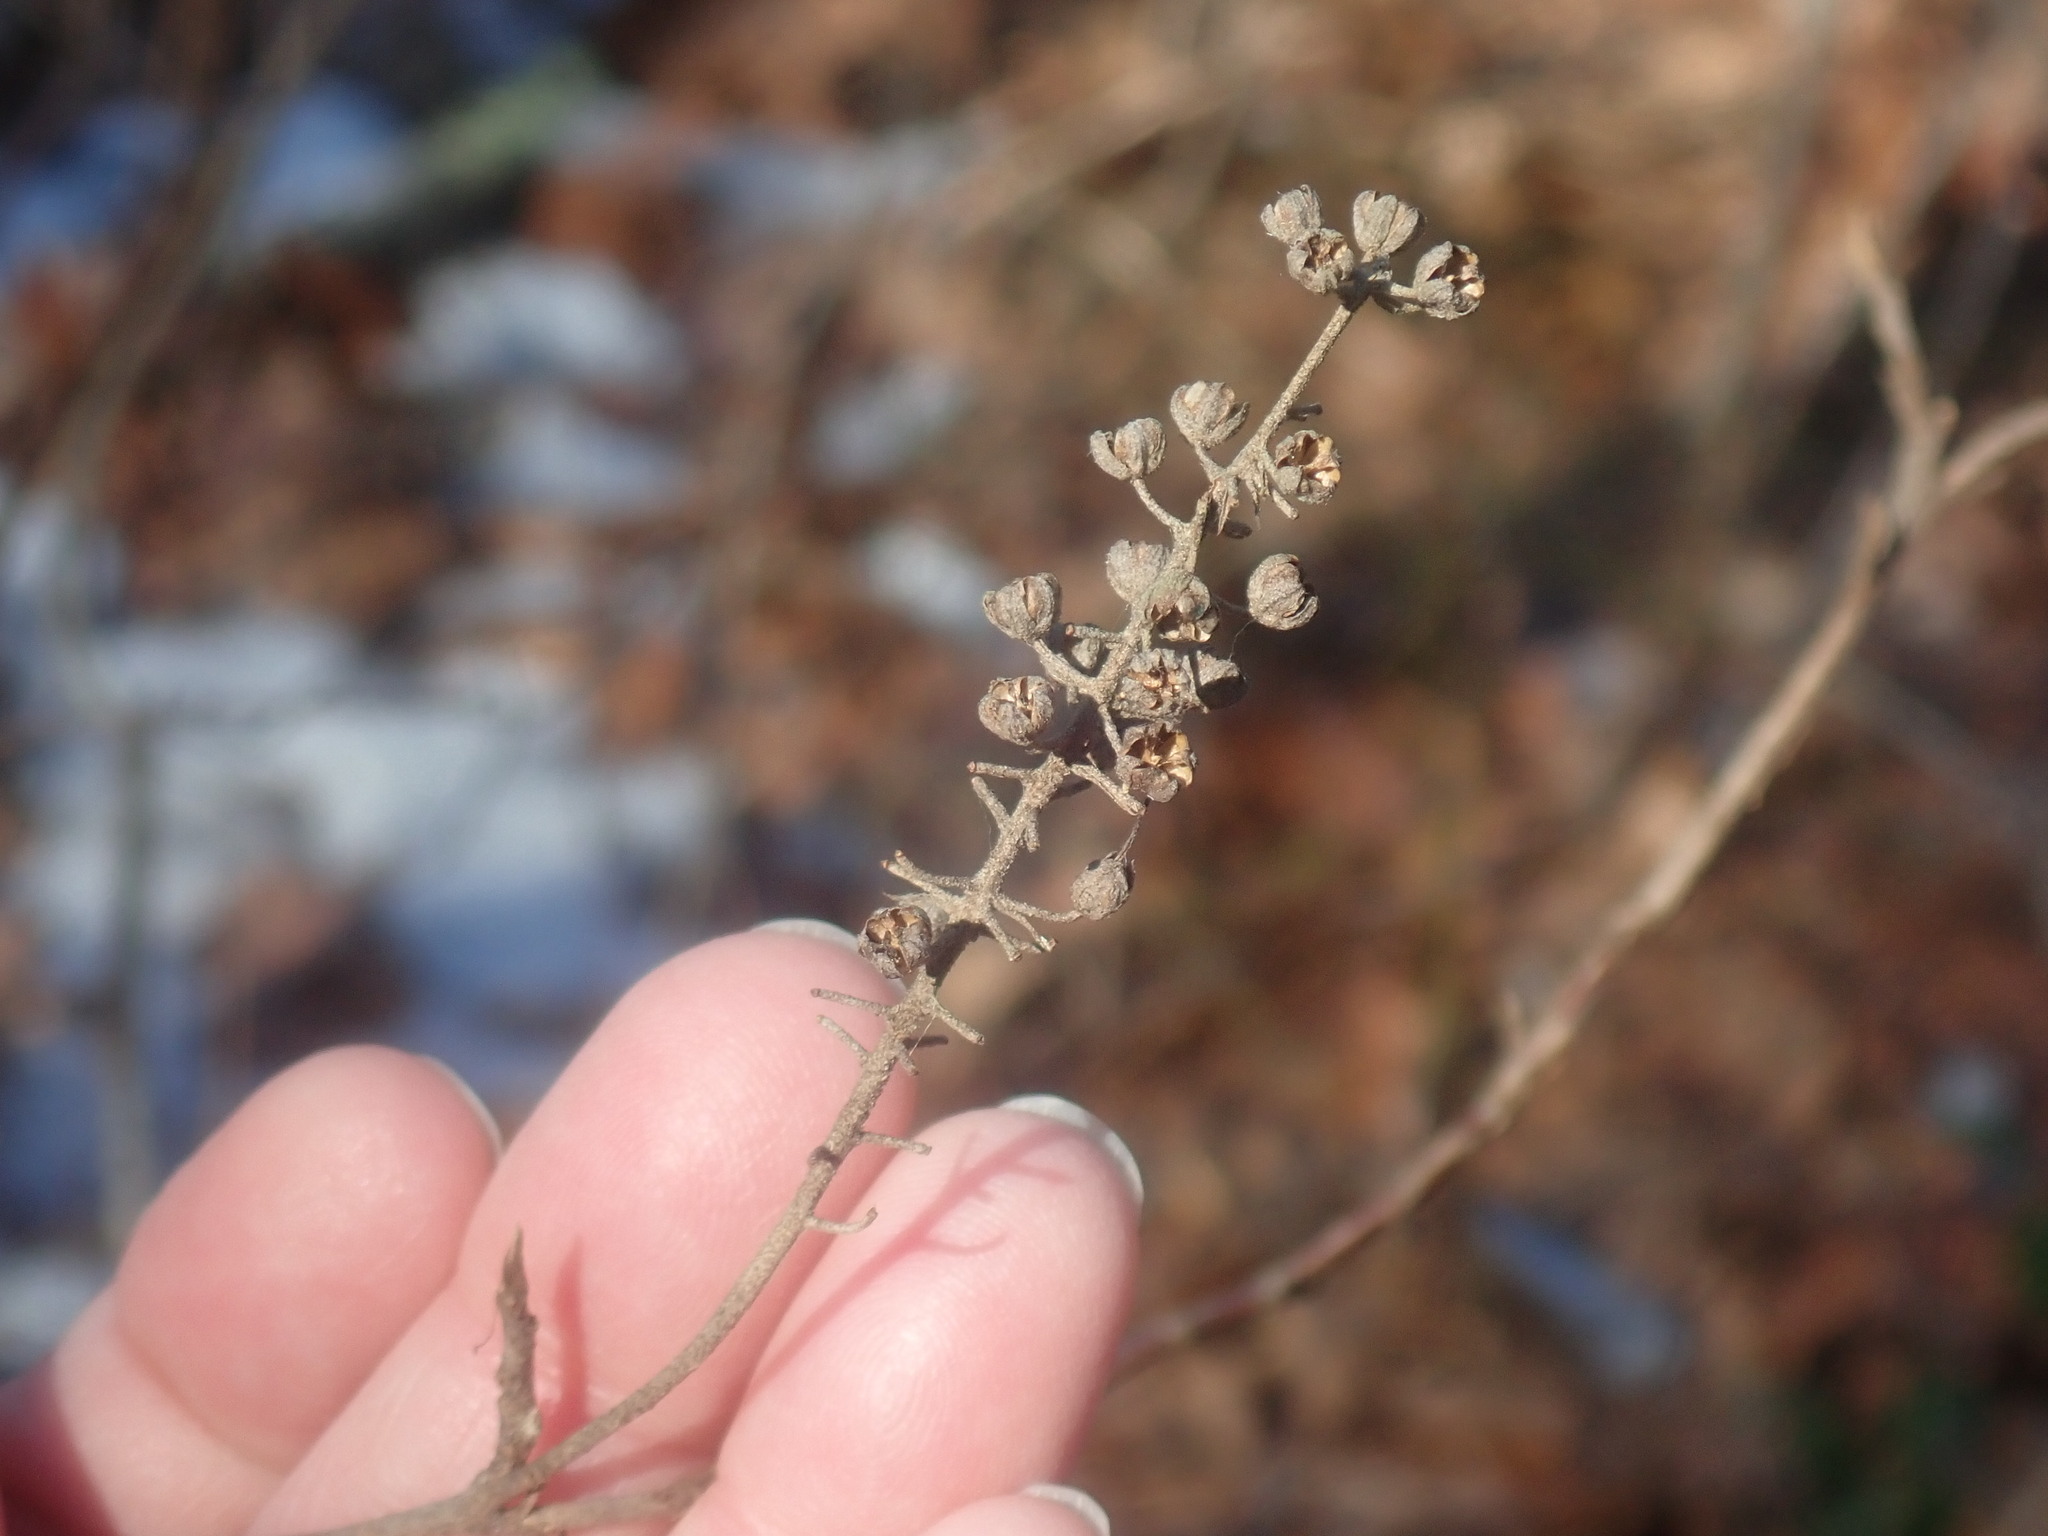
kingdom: Plantae
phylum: Tracheophyta
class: Magnoliopsida
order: Ericales
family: Clethraceae
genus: Clethra
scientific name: Clethra alnifolia
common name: Sweet pepperbush
